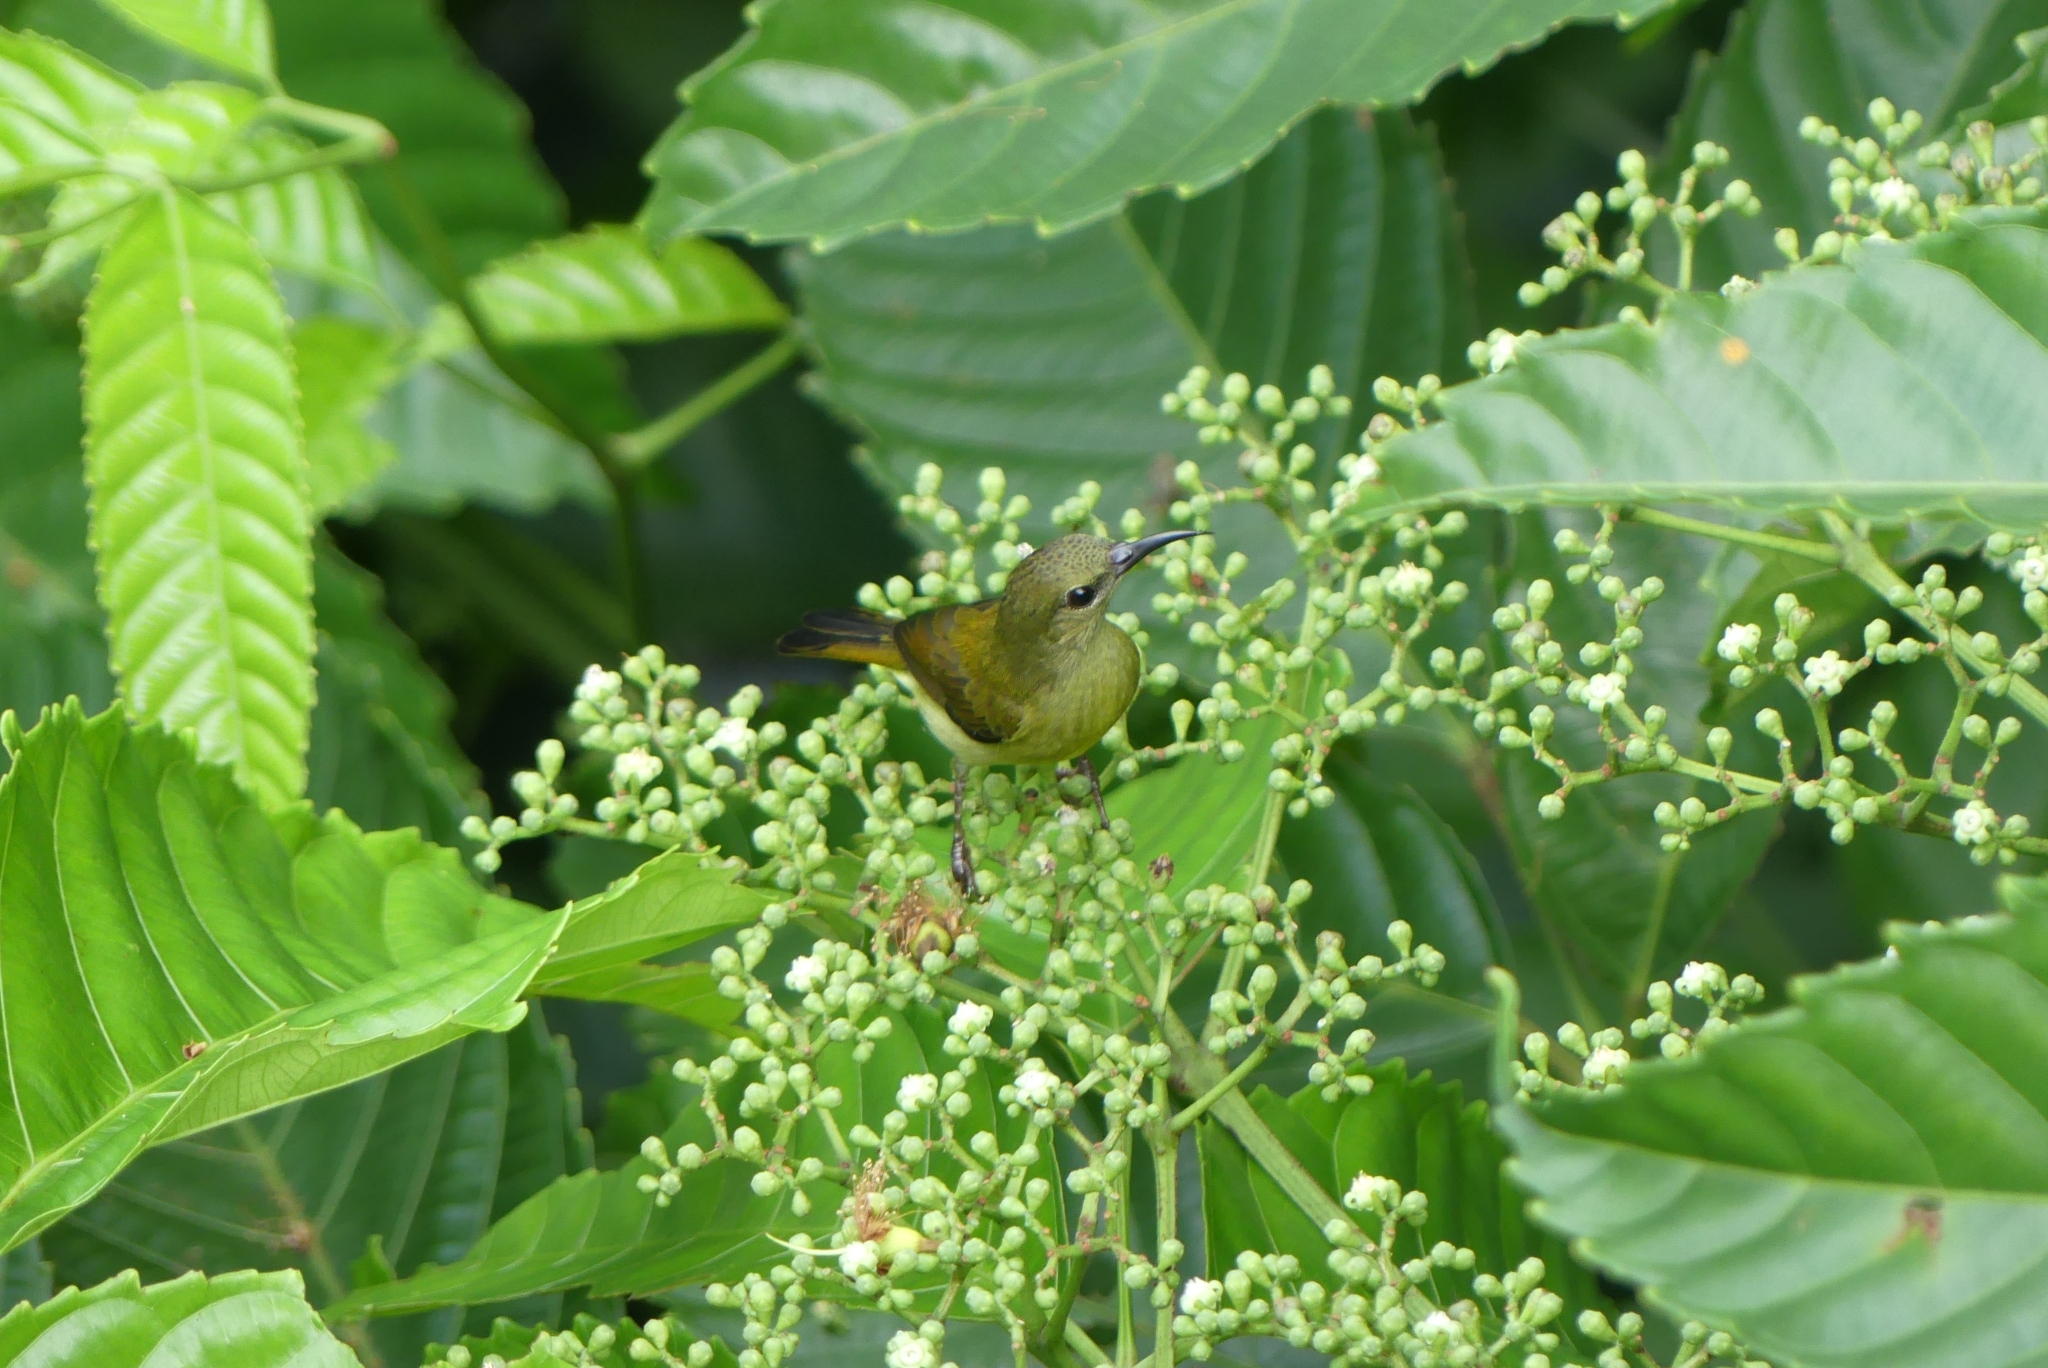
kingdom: Animalia
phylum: Chordata
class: Aves
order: Passeriformes
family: Nectariniidae
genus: Aethopyga
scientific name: Aethopyga siparaja
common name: Crimson sunbird
